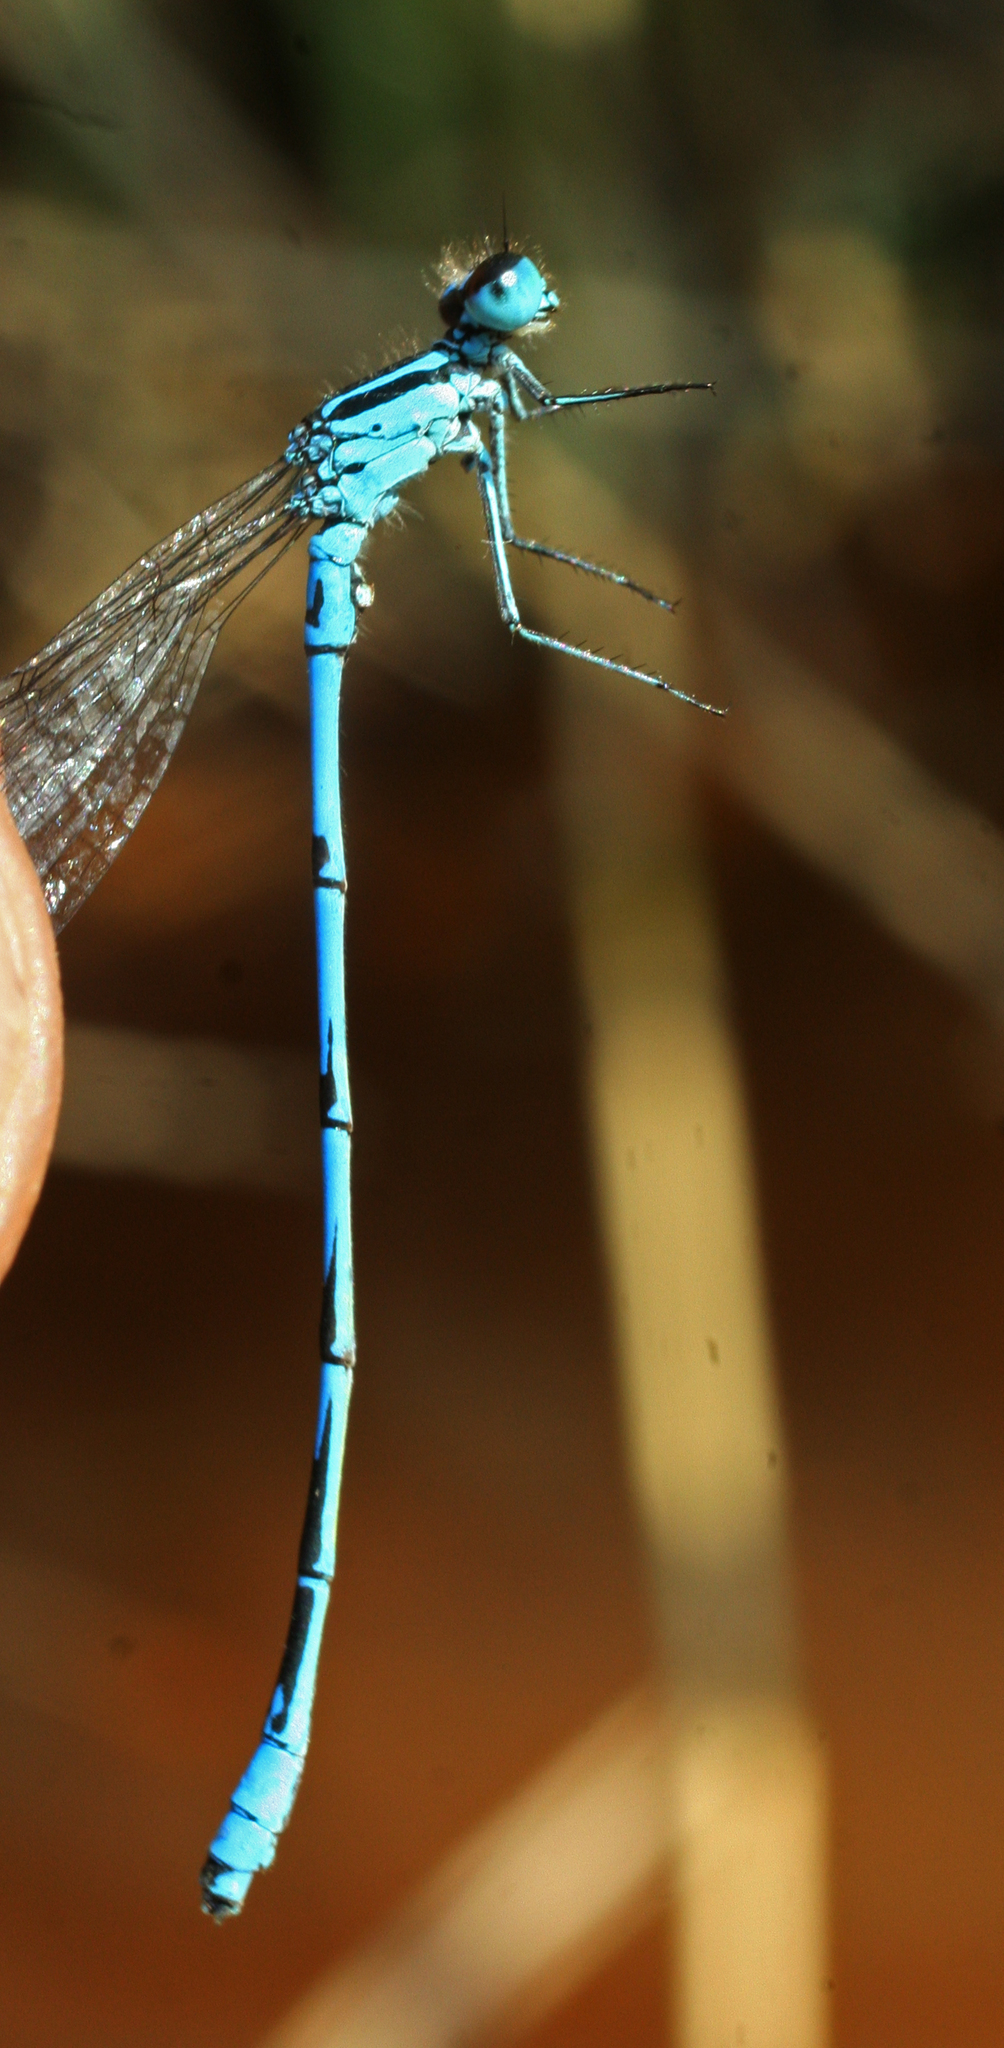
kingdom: Animalia
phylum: Arthropoda
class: Insecta
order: Odonata
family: Coenagrionidae
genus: Coenagrion
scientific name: Coenagrion australocaspicum
